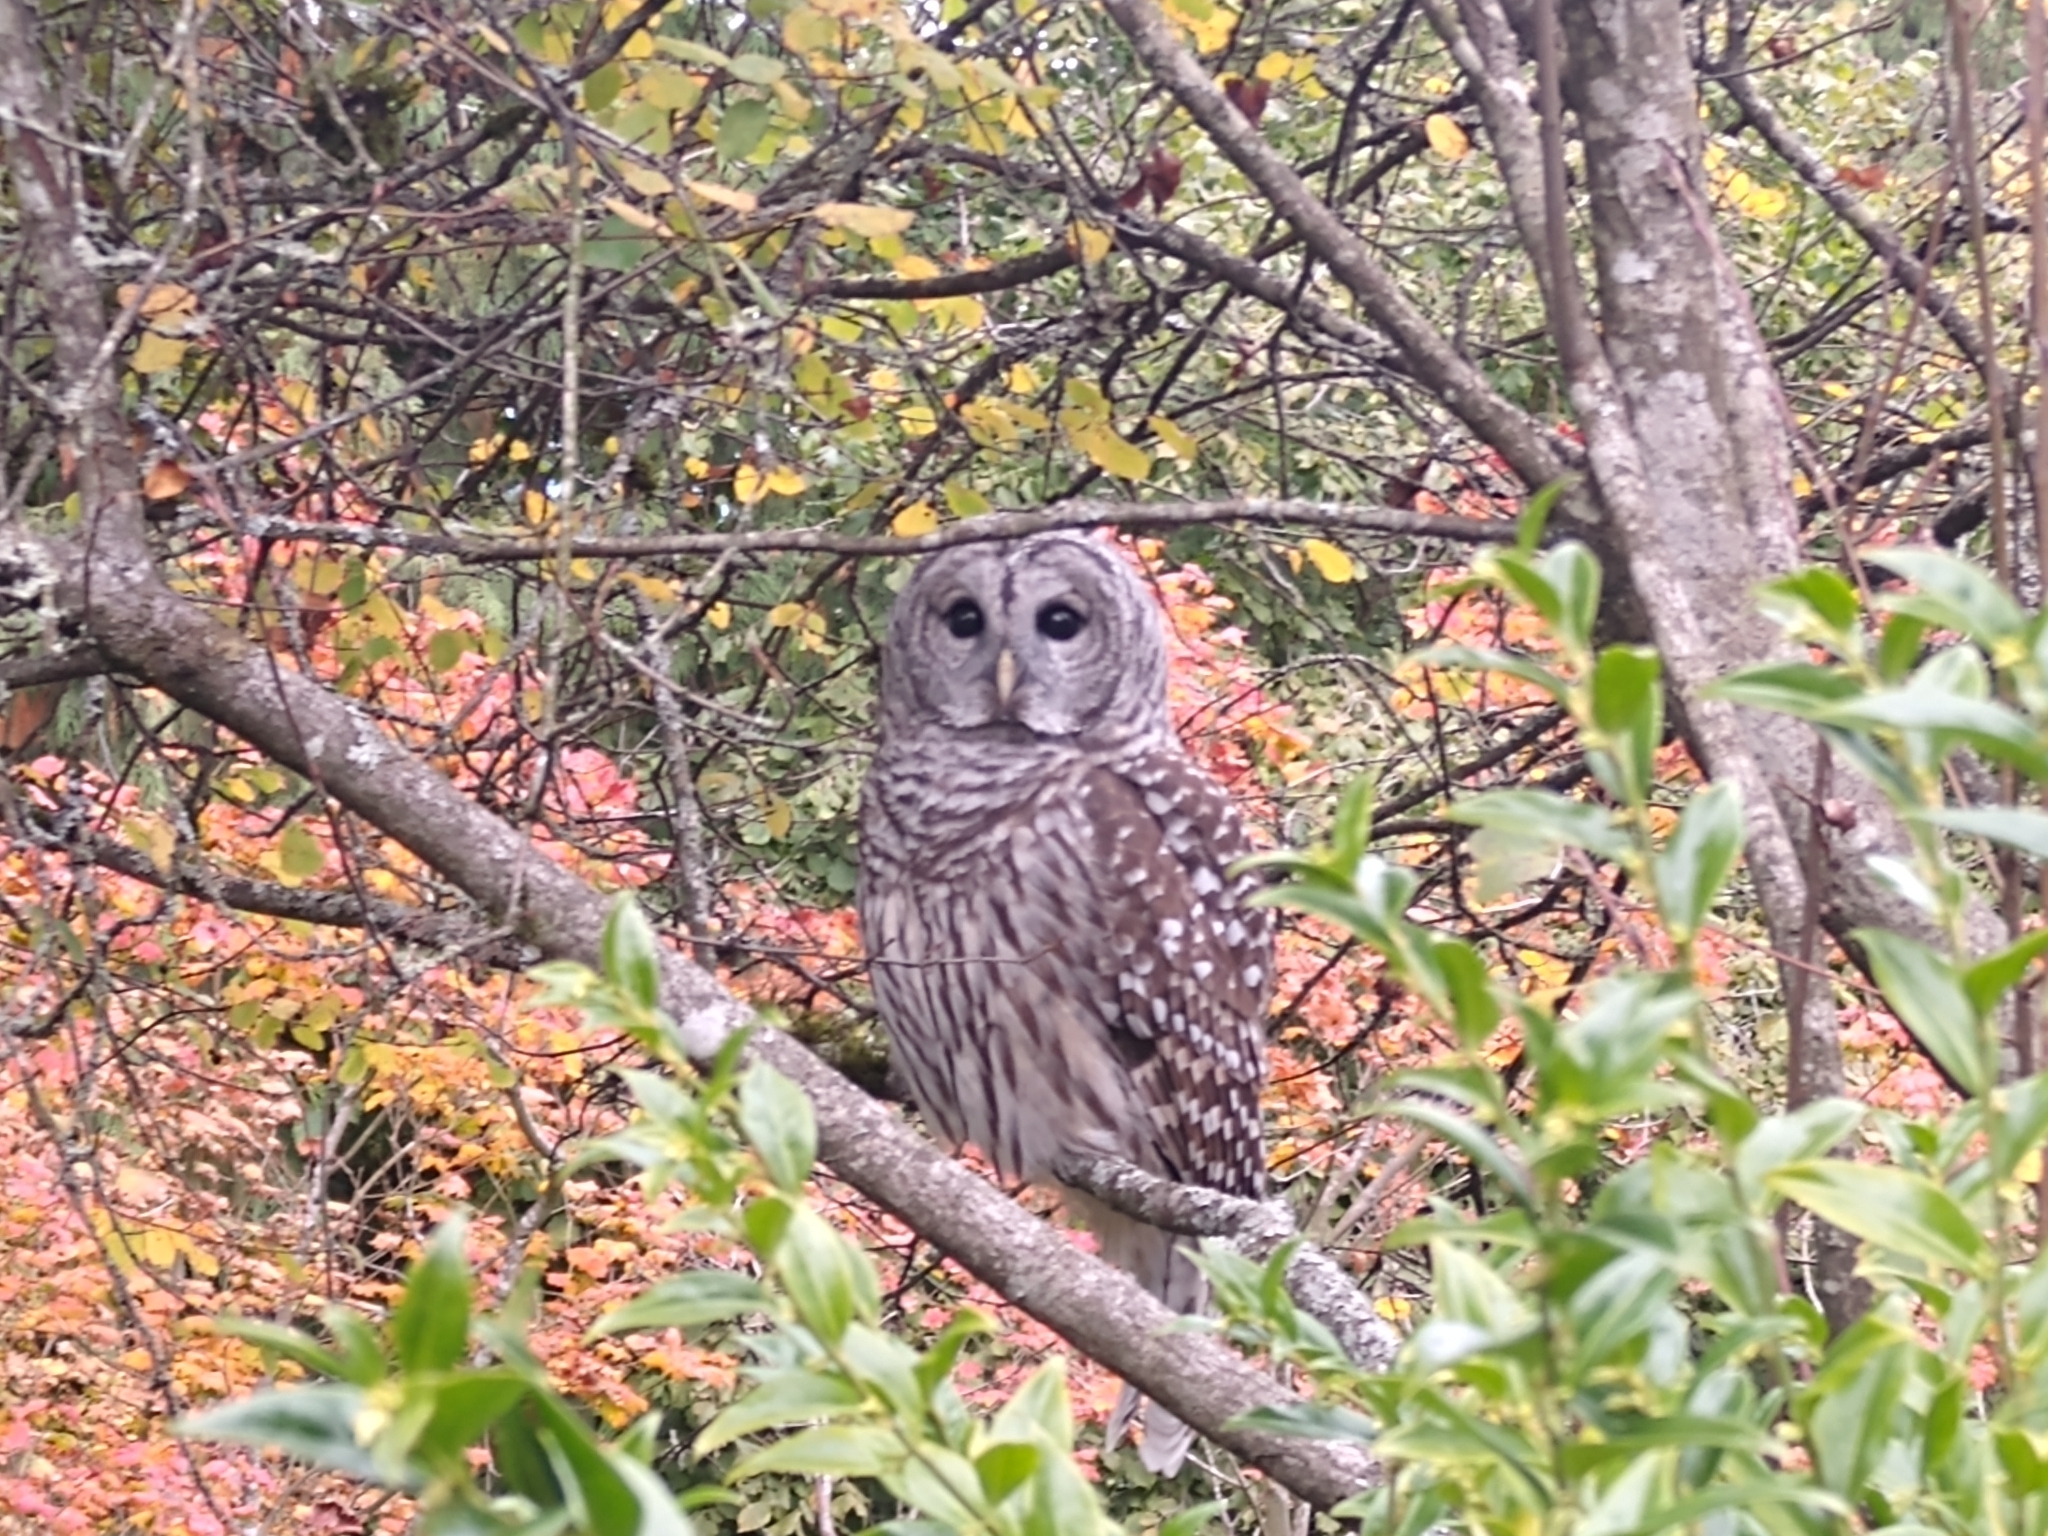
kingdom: Animalia
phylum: Chordata
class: Aves
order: Strigiformes
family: Strigidae
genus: Strix
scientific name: Strix varia
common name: Barred owl
